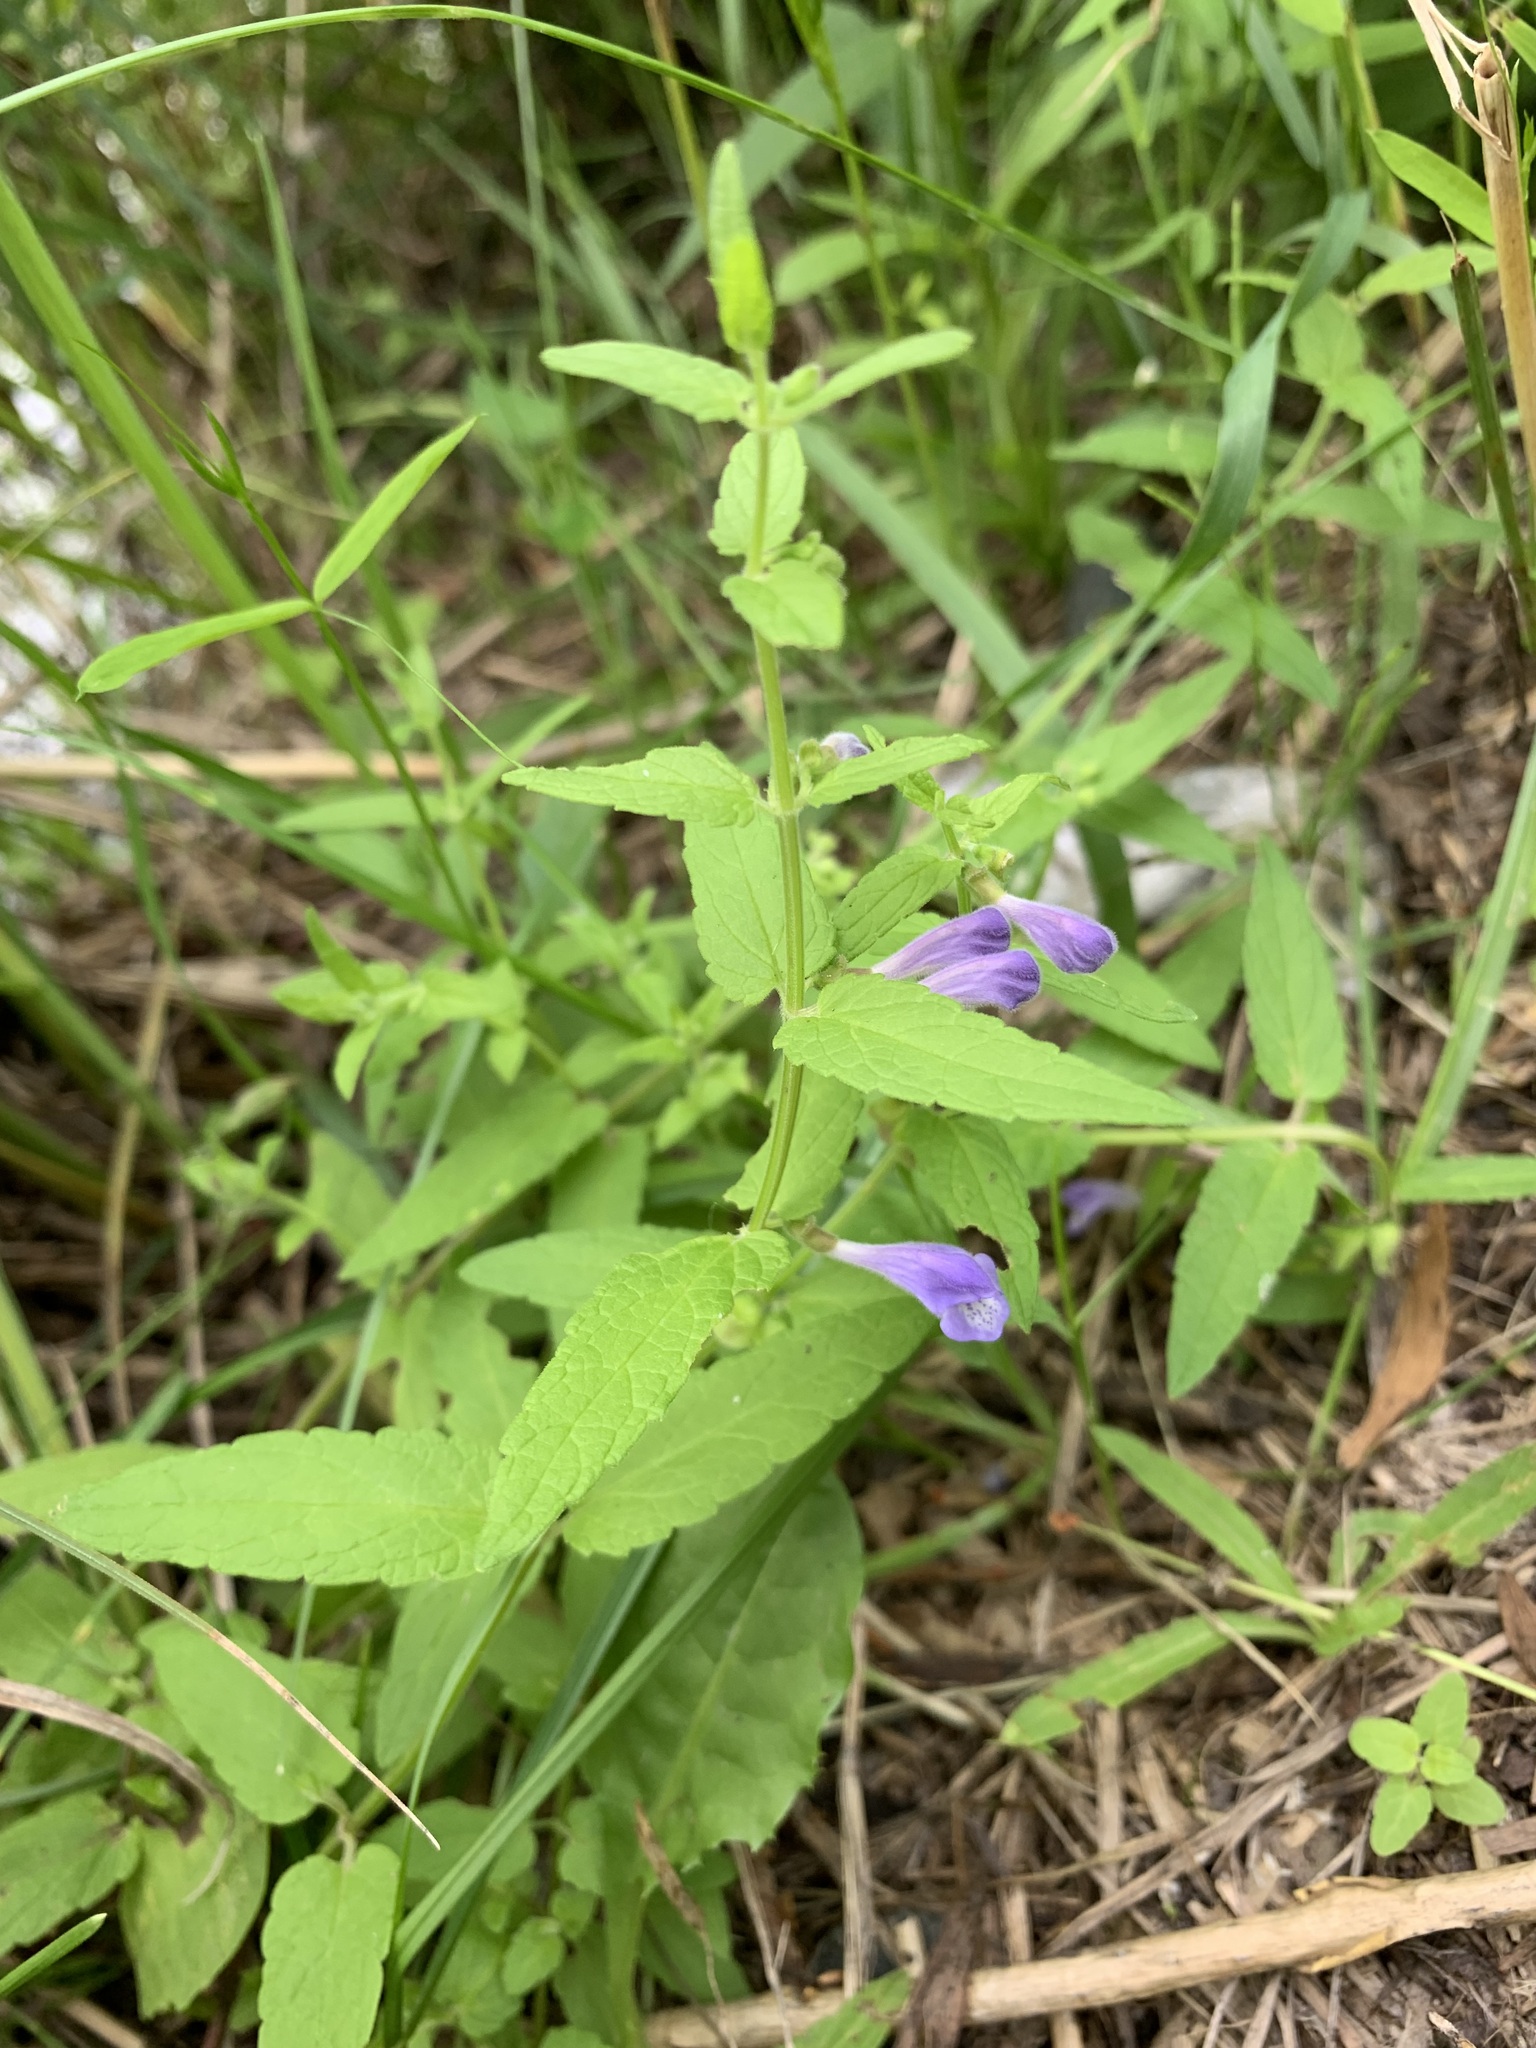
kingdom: Plantae
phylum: Tracheophyta
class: Magnoliopsida
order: Lamiales
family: Lamiaceae
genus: Scutellaria
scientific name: Scutellaria galericulata
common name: Skullcap
